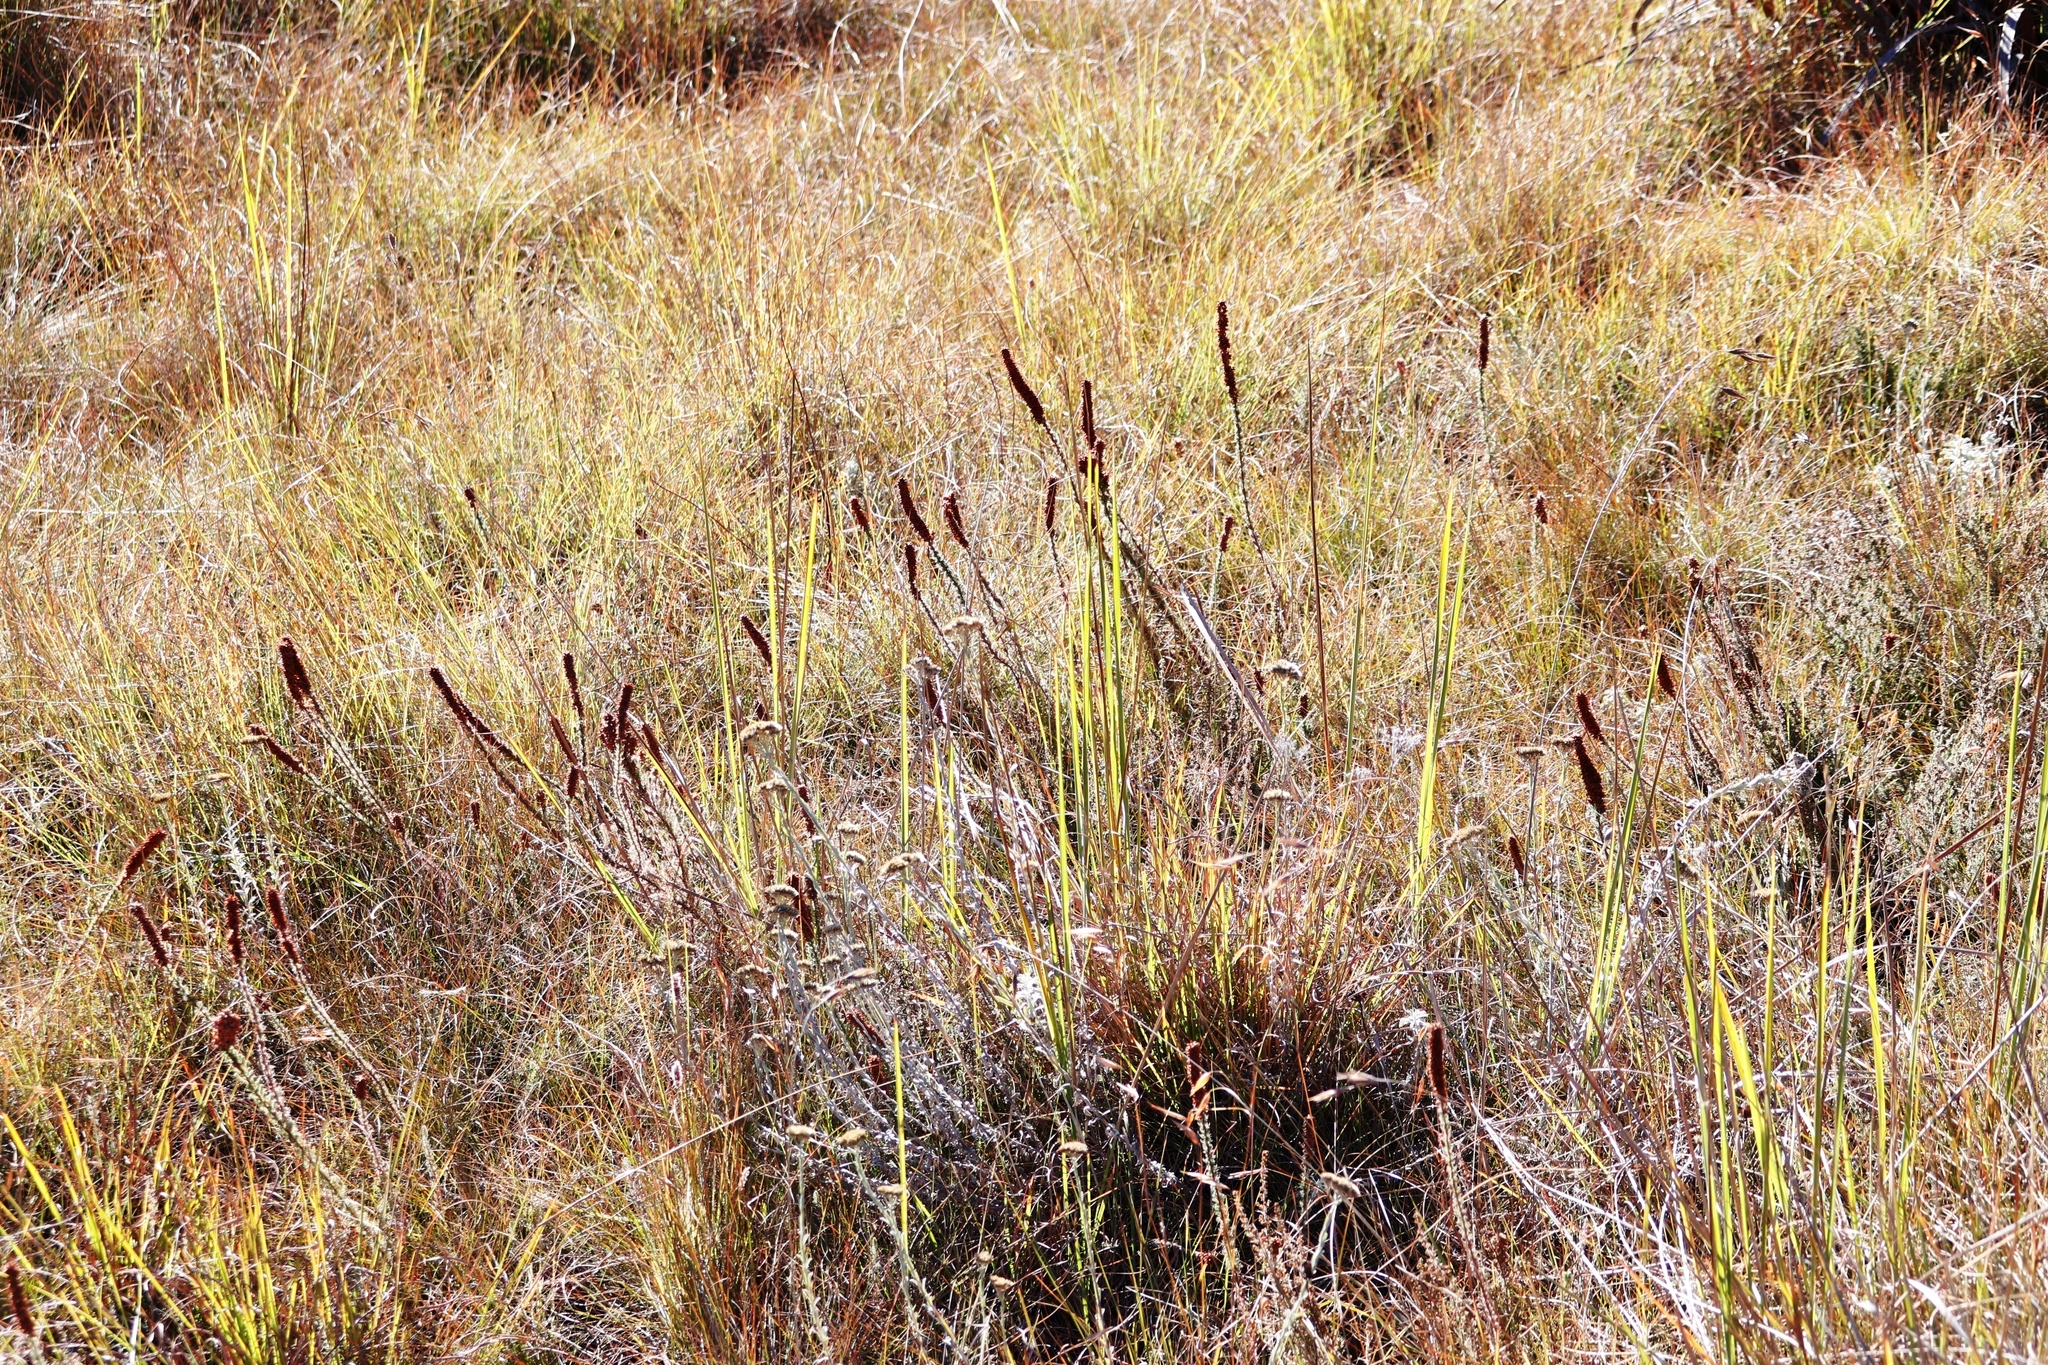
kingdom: Plantae
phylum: Tracheophyta
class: Magnoliopsida
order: Ericales
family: Ericaceae
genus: Erica
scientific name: Erica alopecurus
